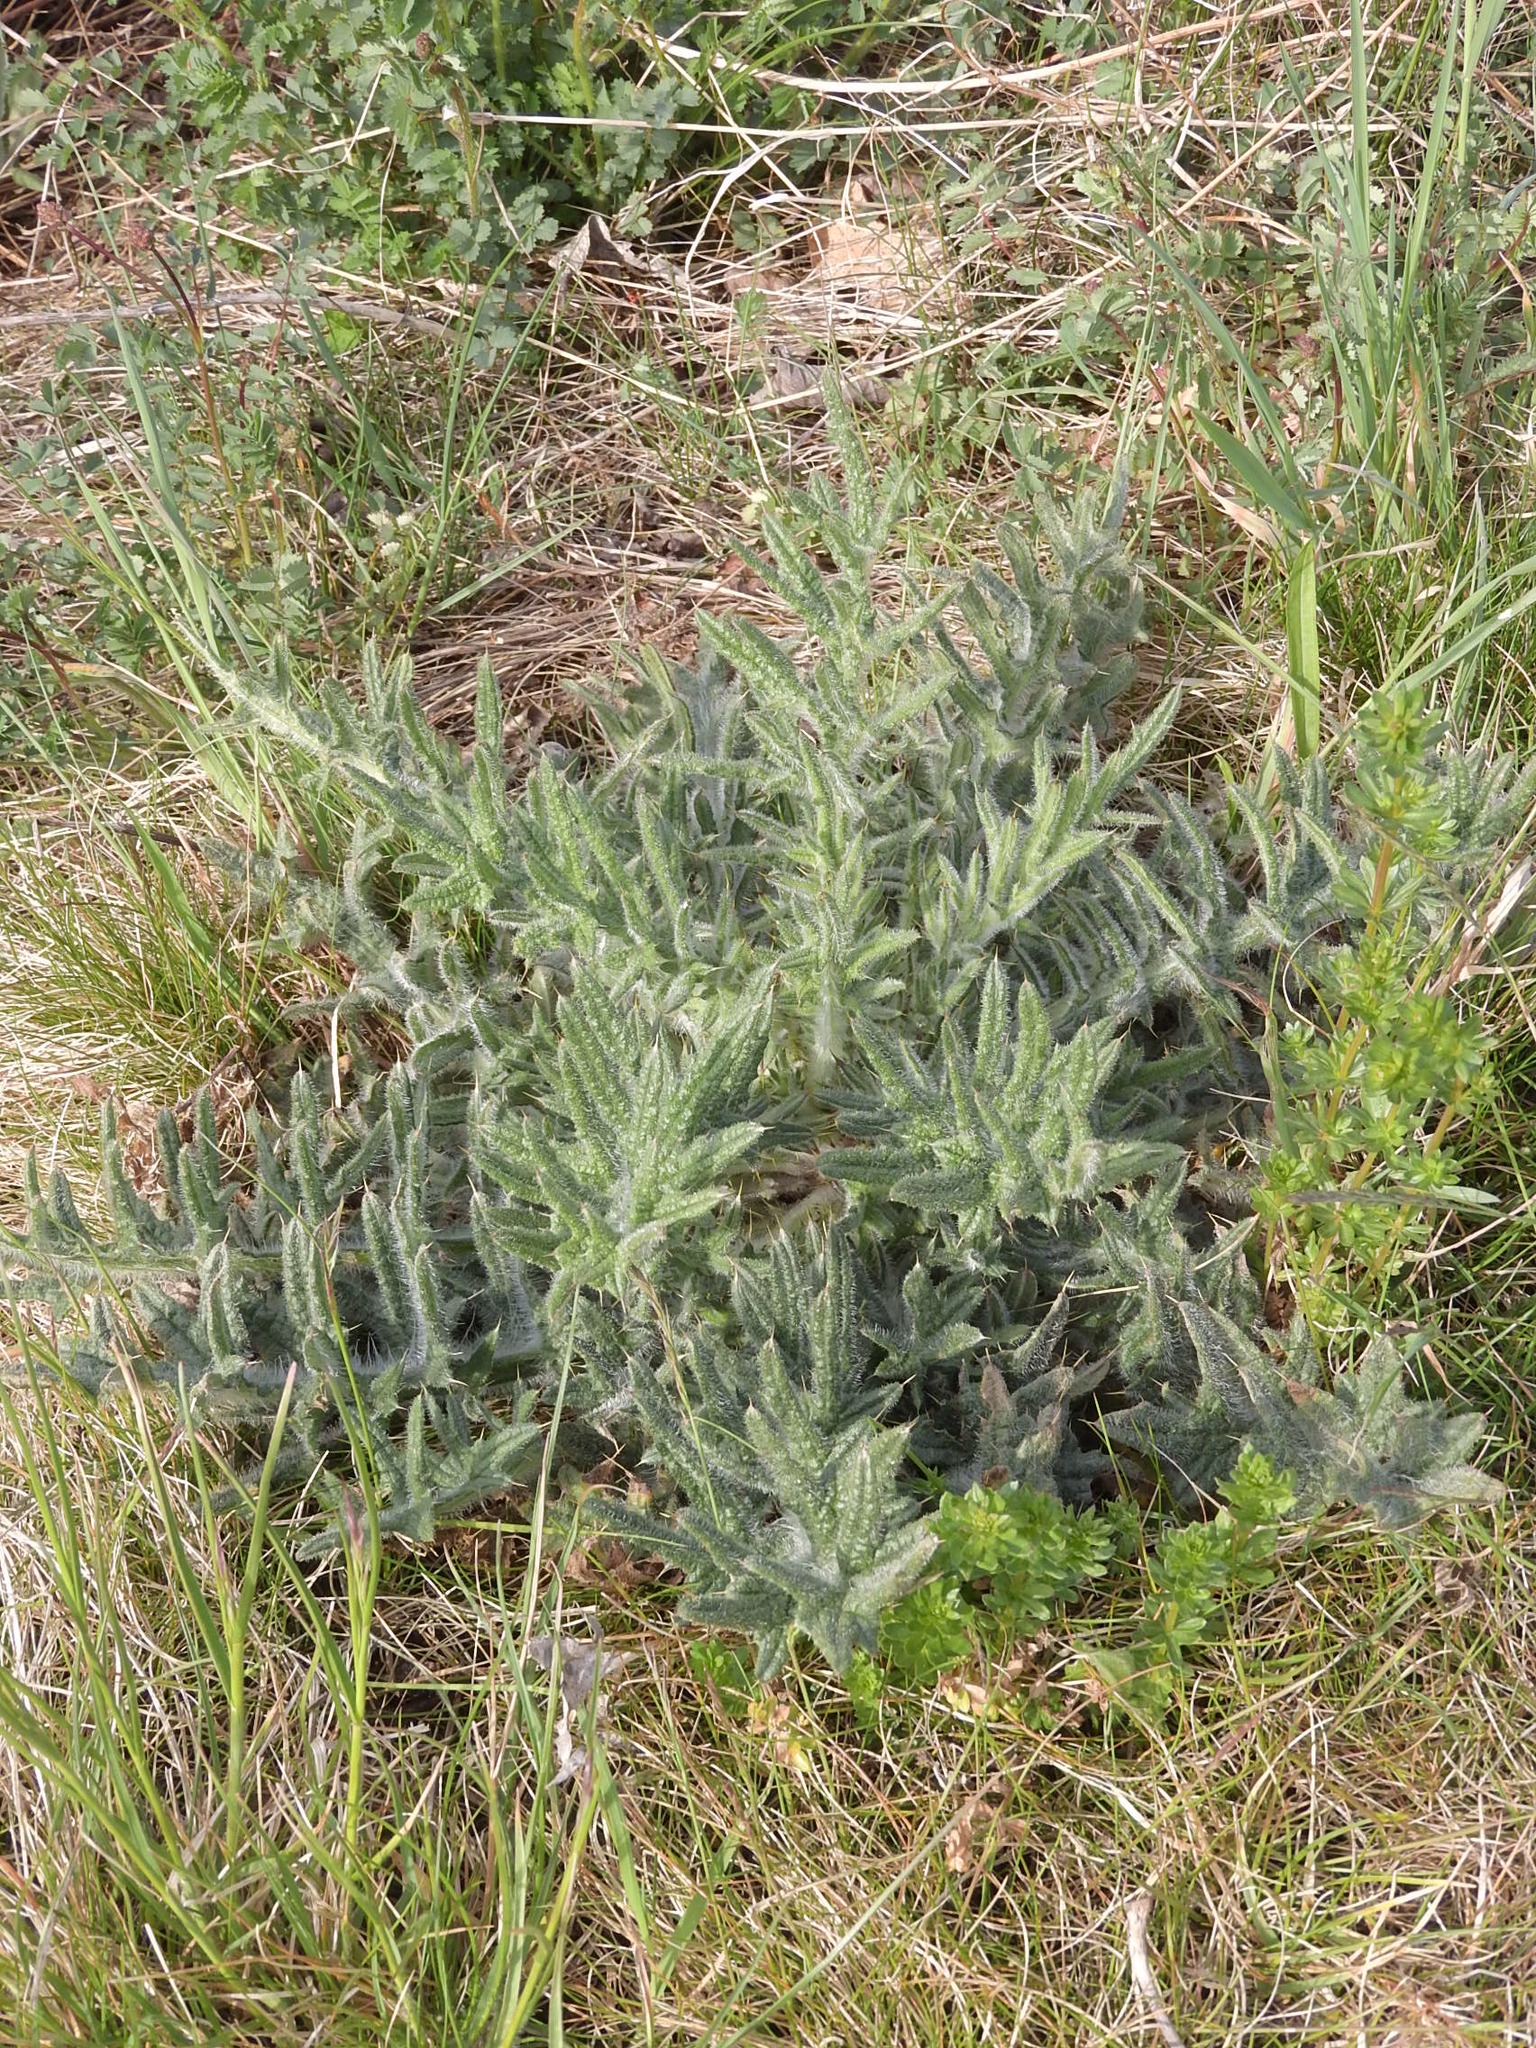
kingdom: Plantae
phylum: Tracheophyta
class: Magnoliopsida
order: Asterales
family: Asteraceae
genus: Cirsium
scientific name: Cirsium vulgare
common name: Bull thistle
